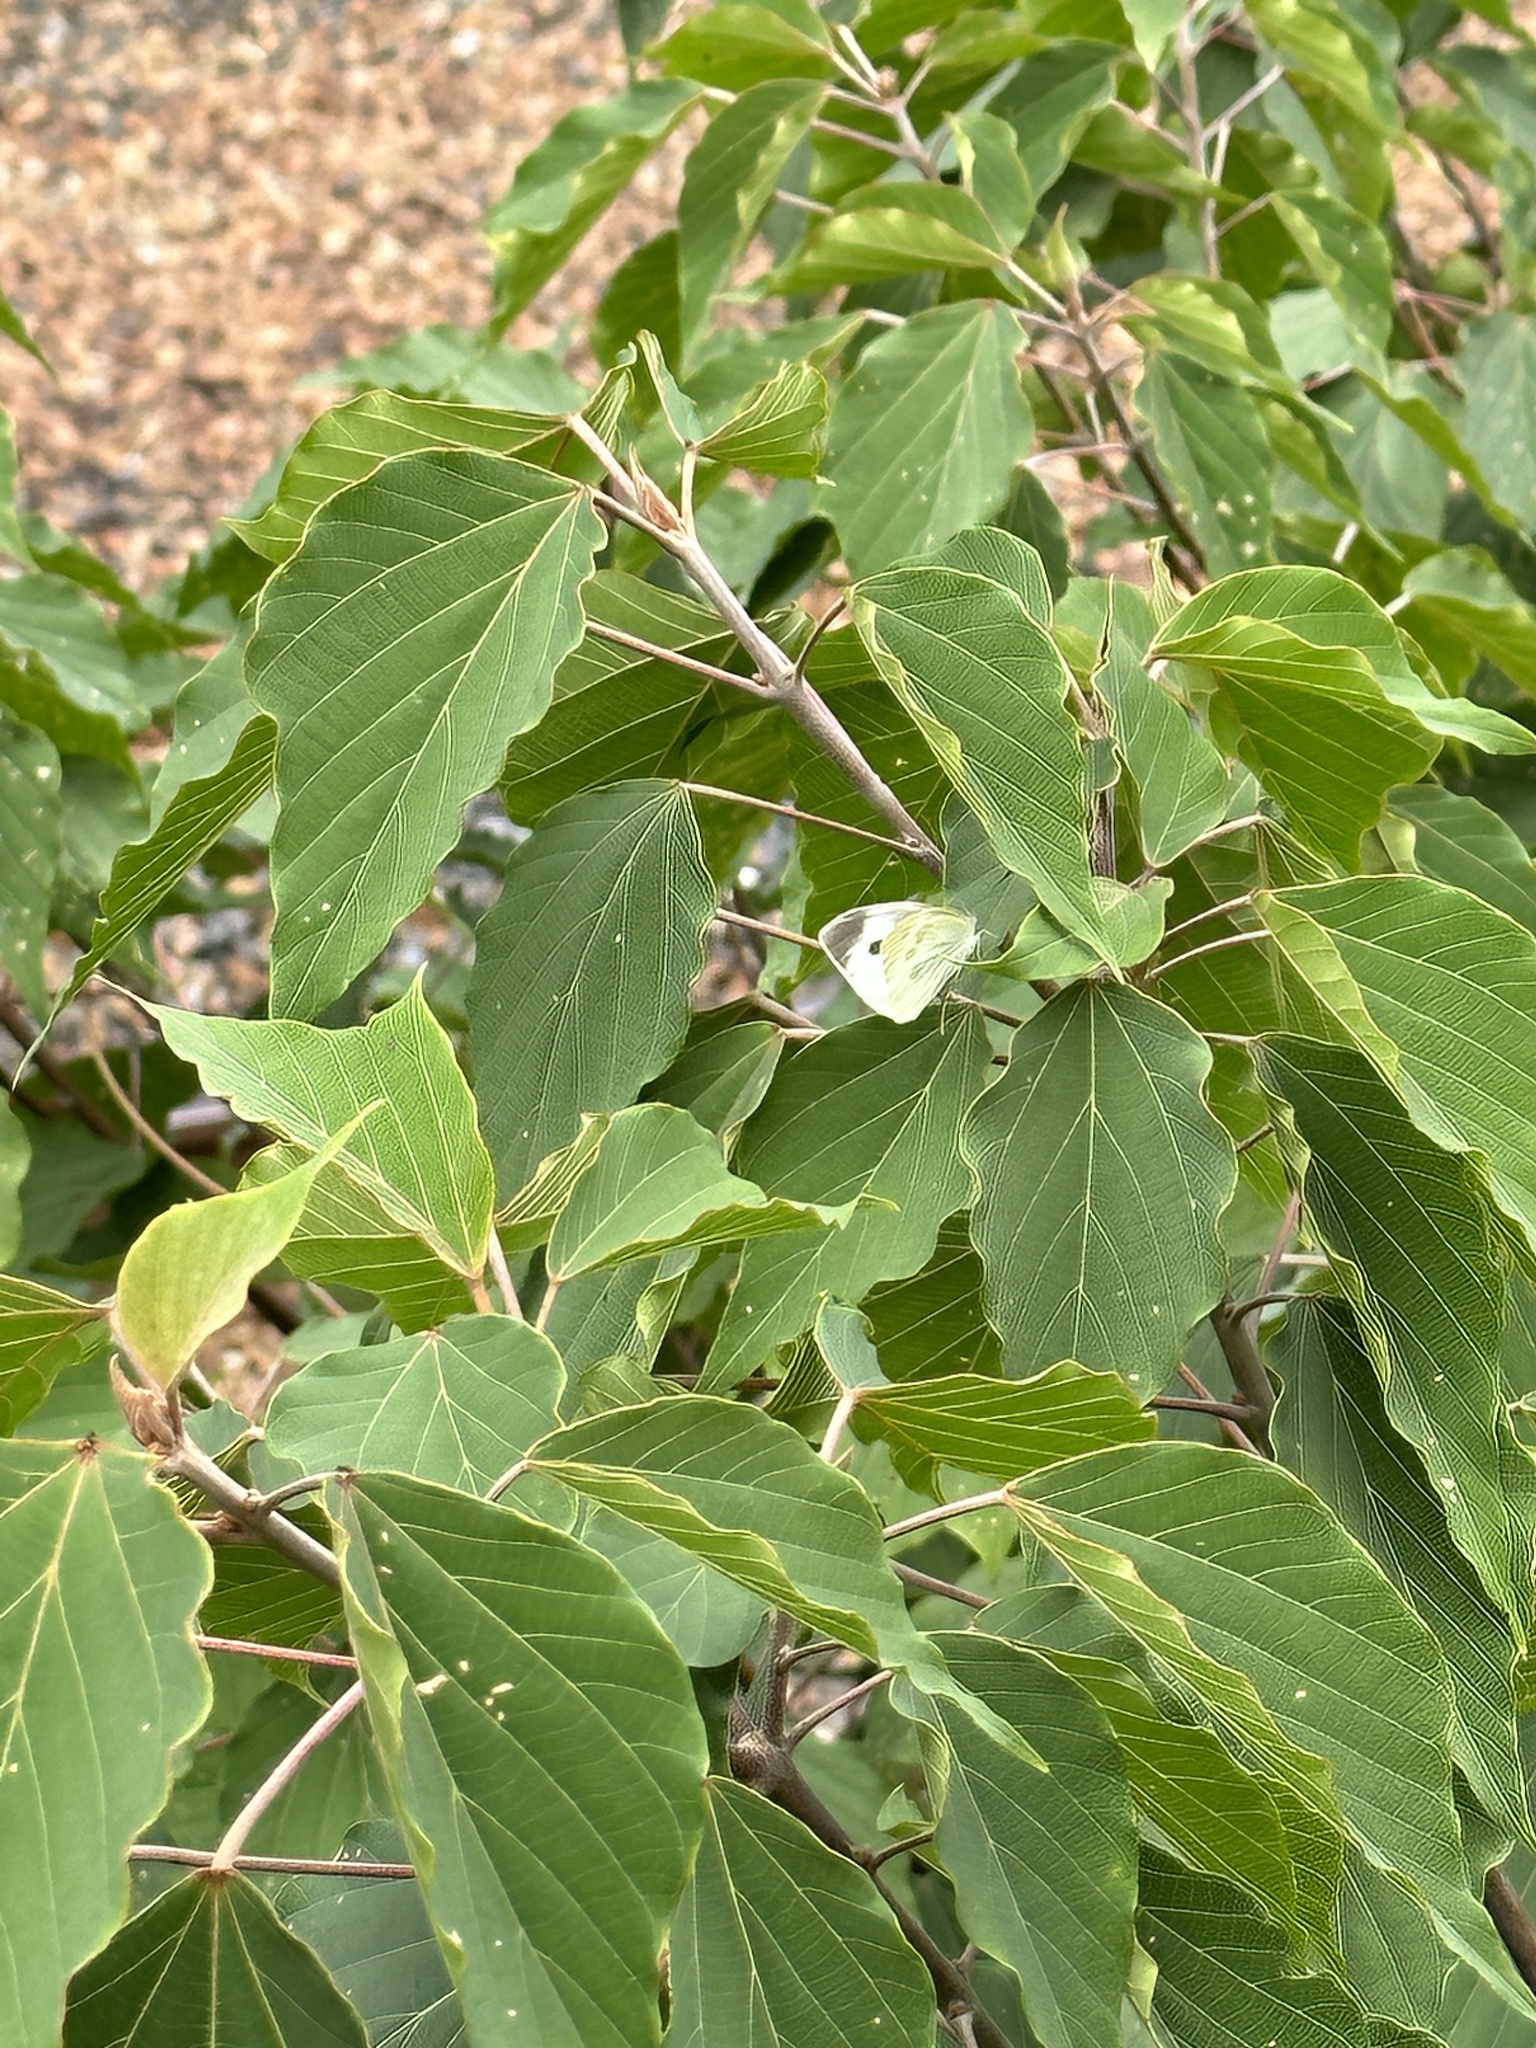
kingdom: Animalia
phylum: Arthropoda
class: Insecta
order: Lepidoptera
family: Pieridae
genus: Pieris
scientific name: Pieris rapae
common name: Small white
